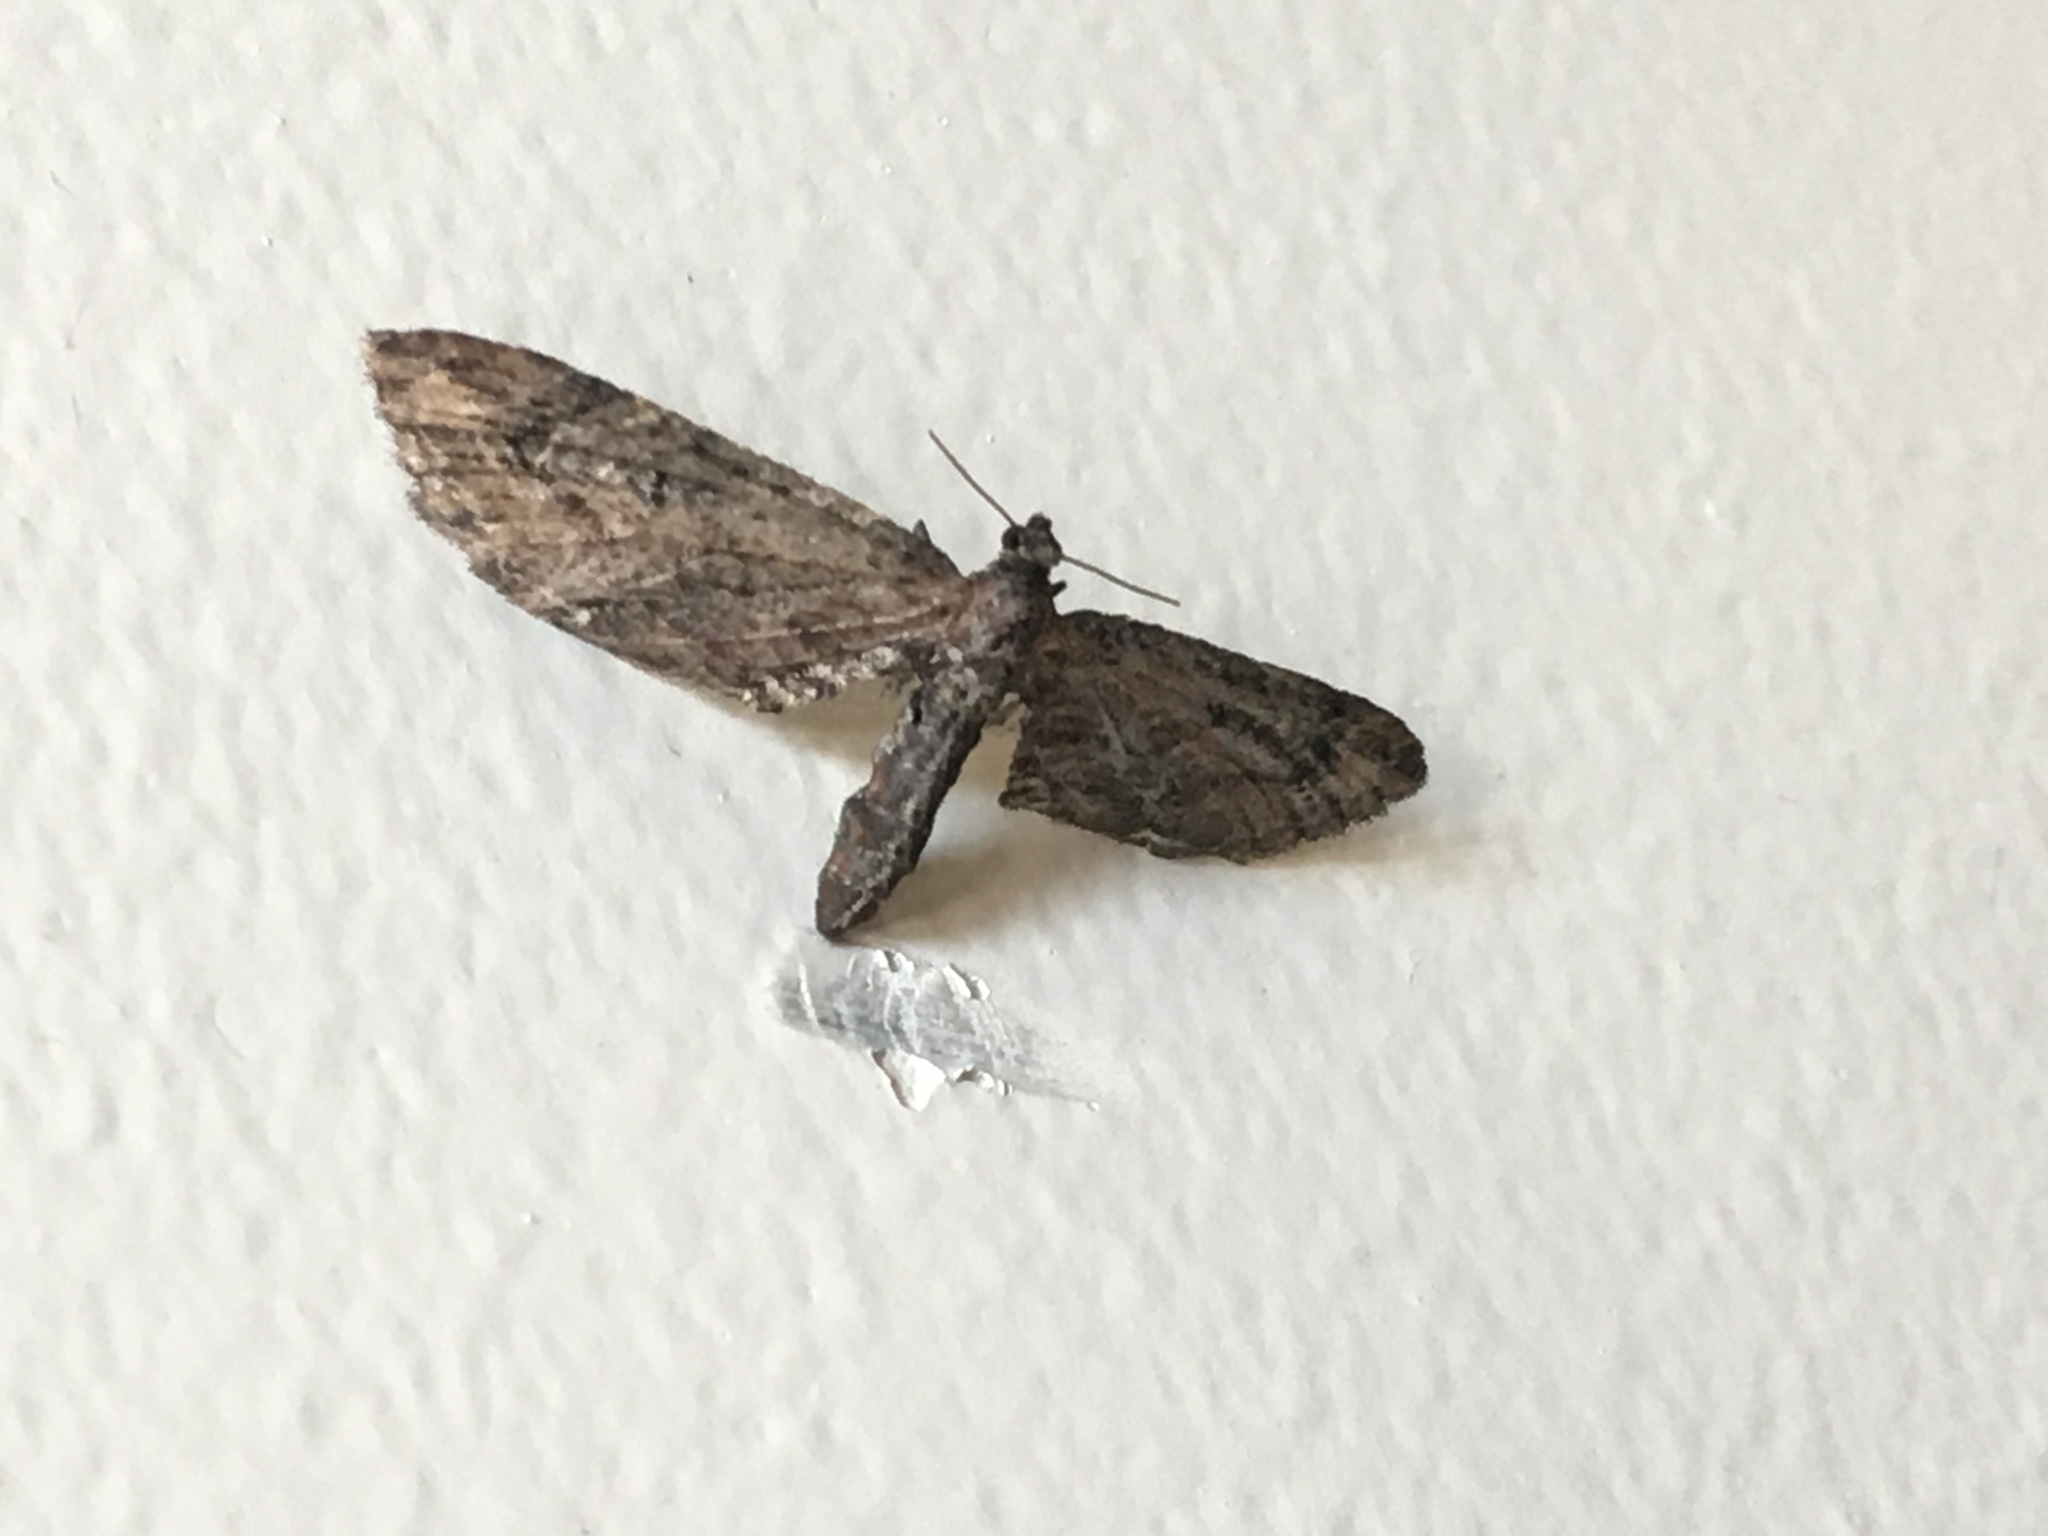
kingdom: Animalia
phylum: Arthropoda
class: Insecta
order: Lepidoptera
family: Geometridae
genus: Eupithecia
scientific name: Eupithecia subapicata
